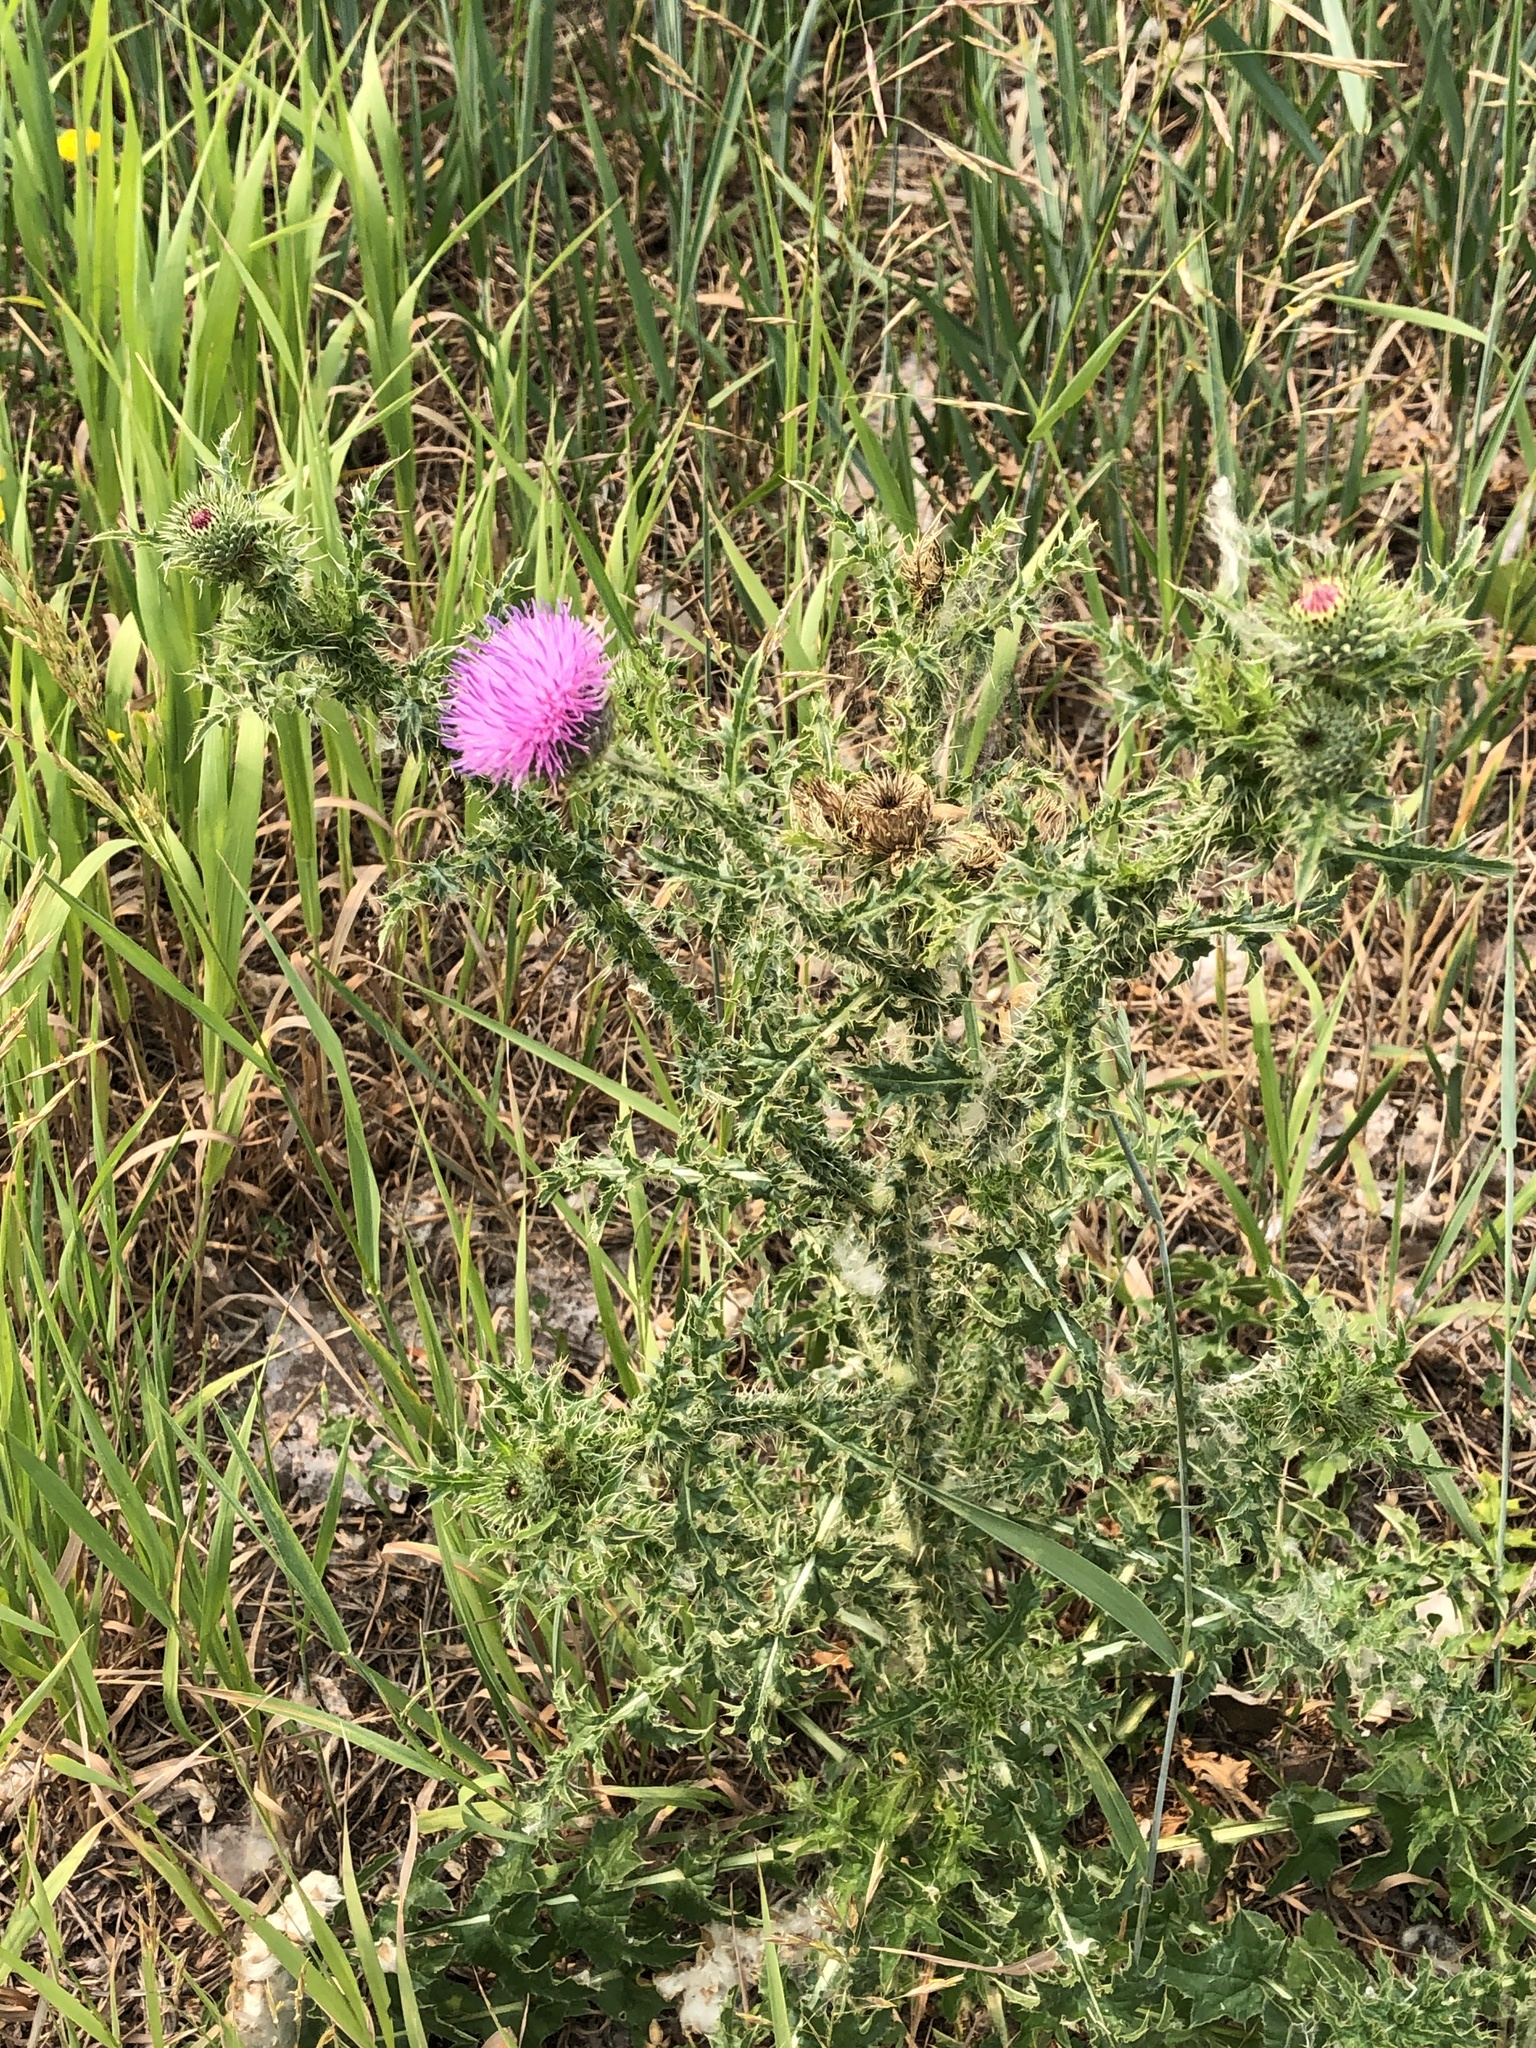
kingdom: Plantae
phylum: Tracheophyta
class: Magnoliopsida
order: Asterales
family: Asteraceae
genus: Carduus
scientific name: Carduus acanthoides
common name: Plumeless thistle
